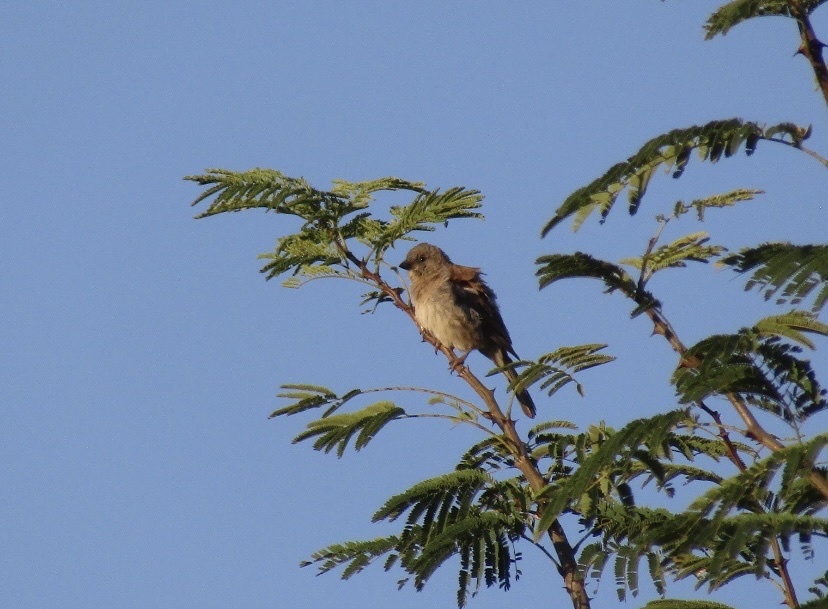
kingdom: Animalia
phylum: Chordata
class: Aves
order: Passeriformes
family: Passeridae
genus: Passer
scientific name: Passer diffusus
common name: Southern grey-headed sparrow
